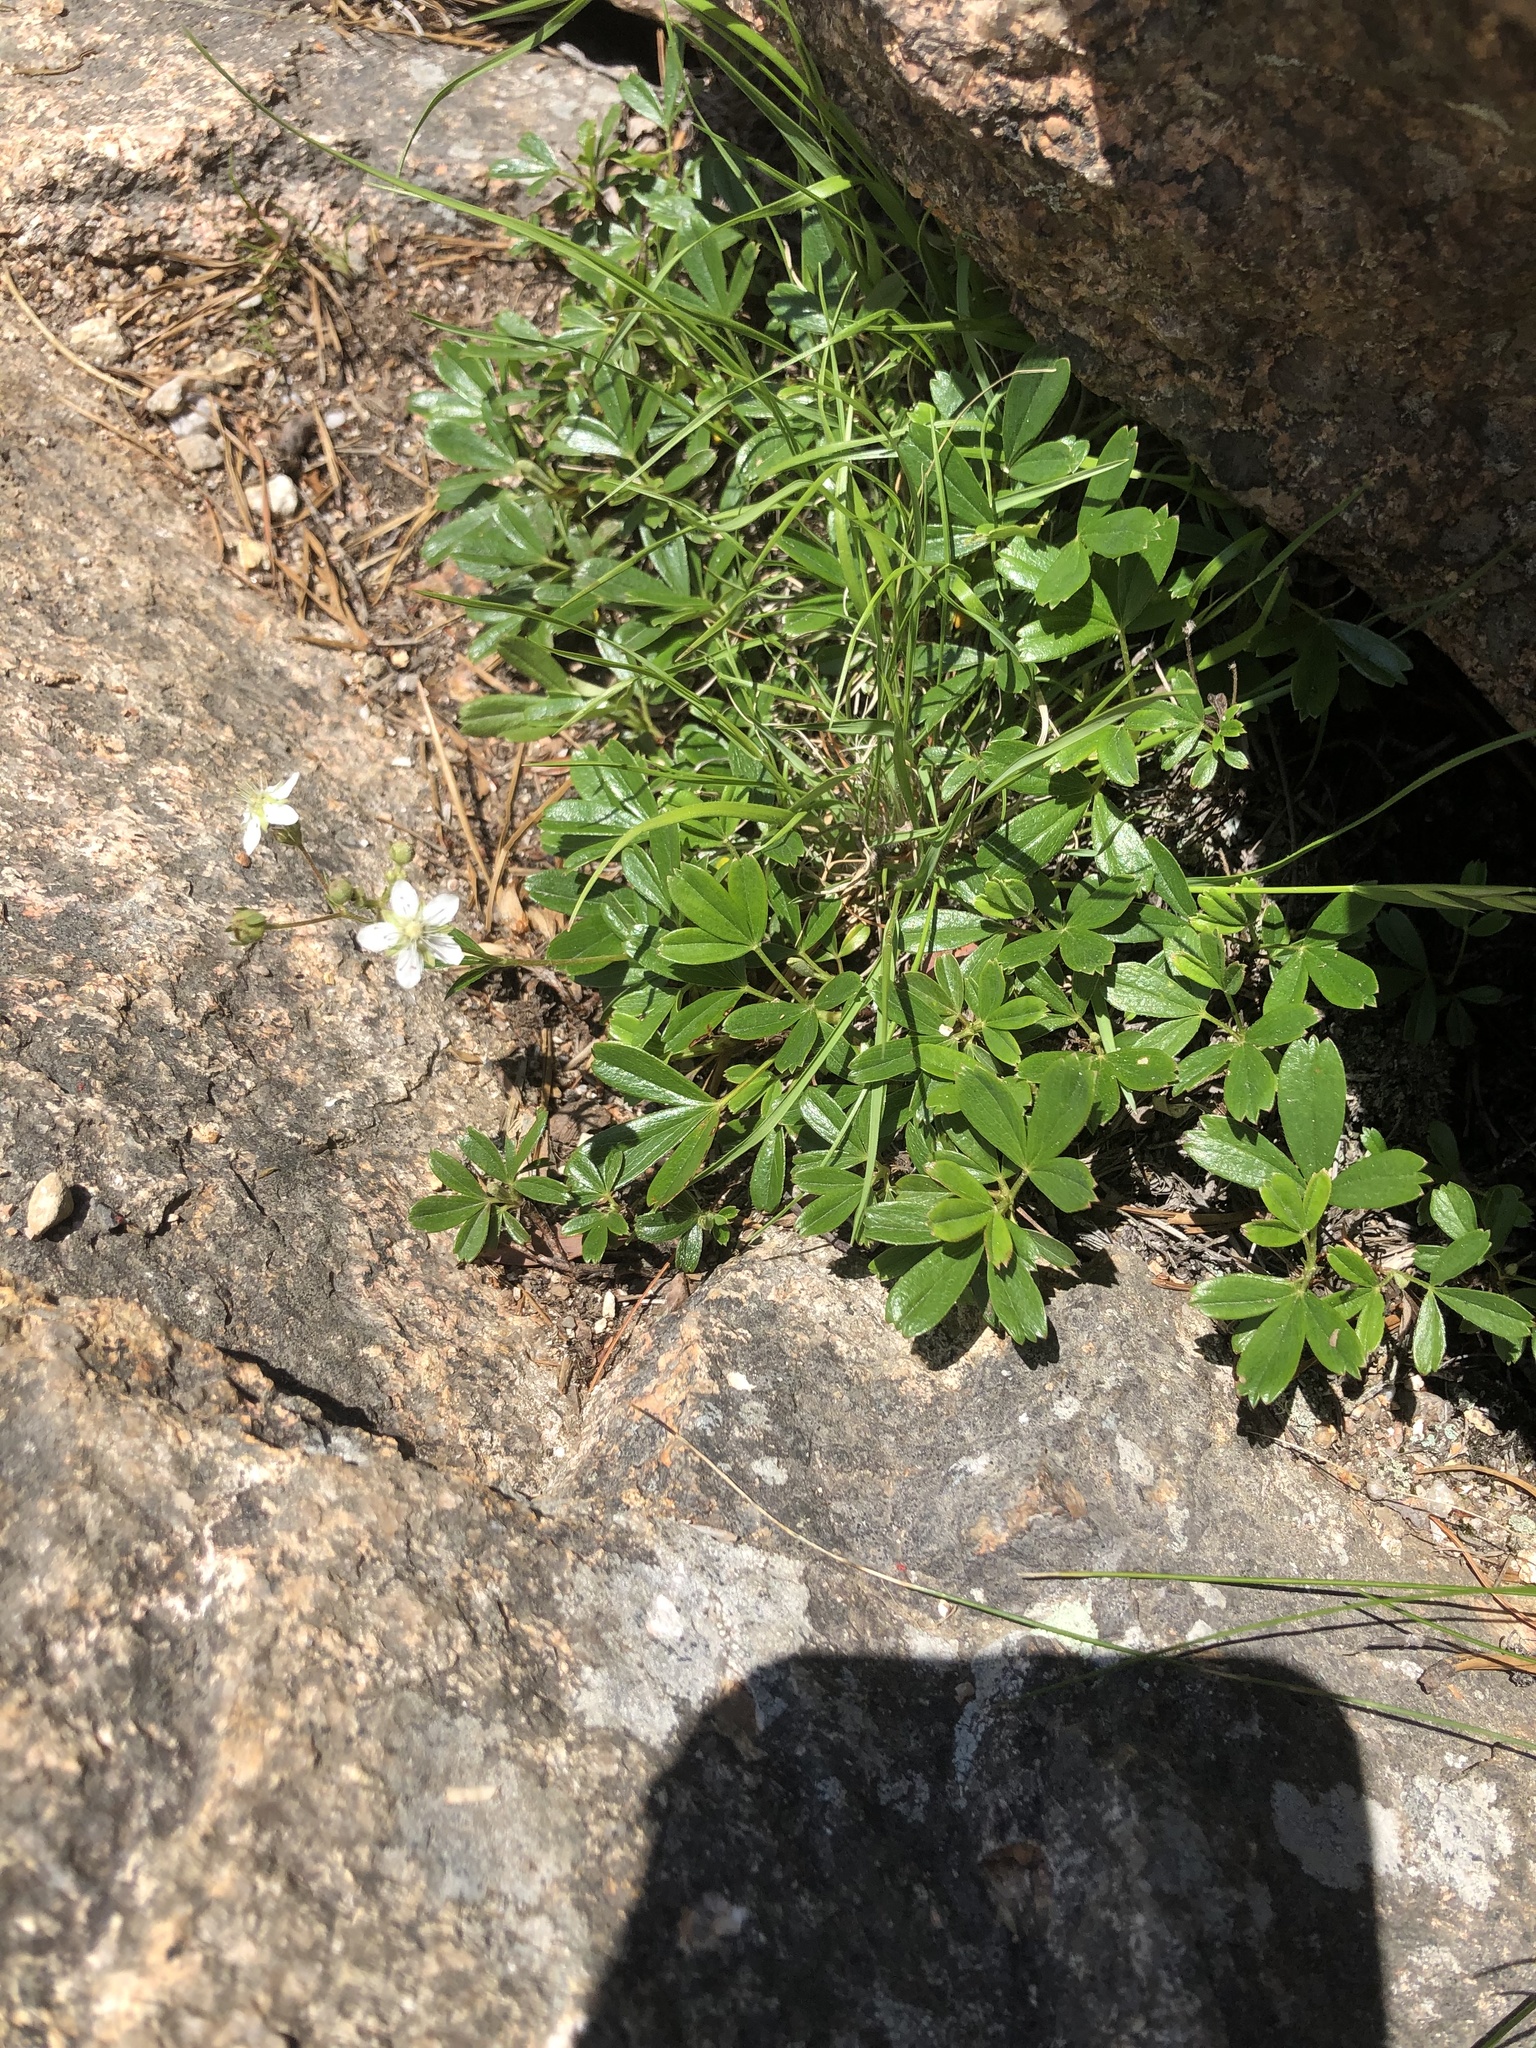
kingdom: Plantae
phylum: Tracheophyta
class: Magnoliopsida
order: Rosales
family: Rosaceae
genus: Sibbaldia
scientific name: Sibbaldia tridentata
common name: Three-toothed cinquefoil
